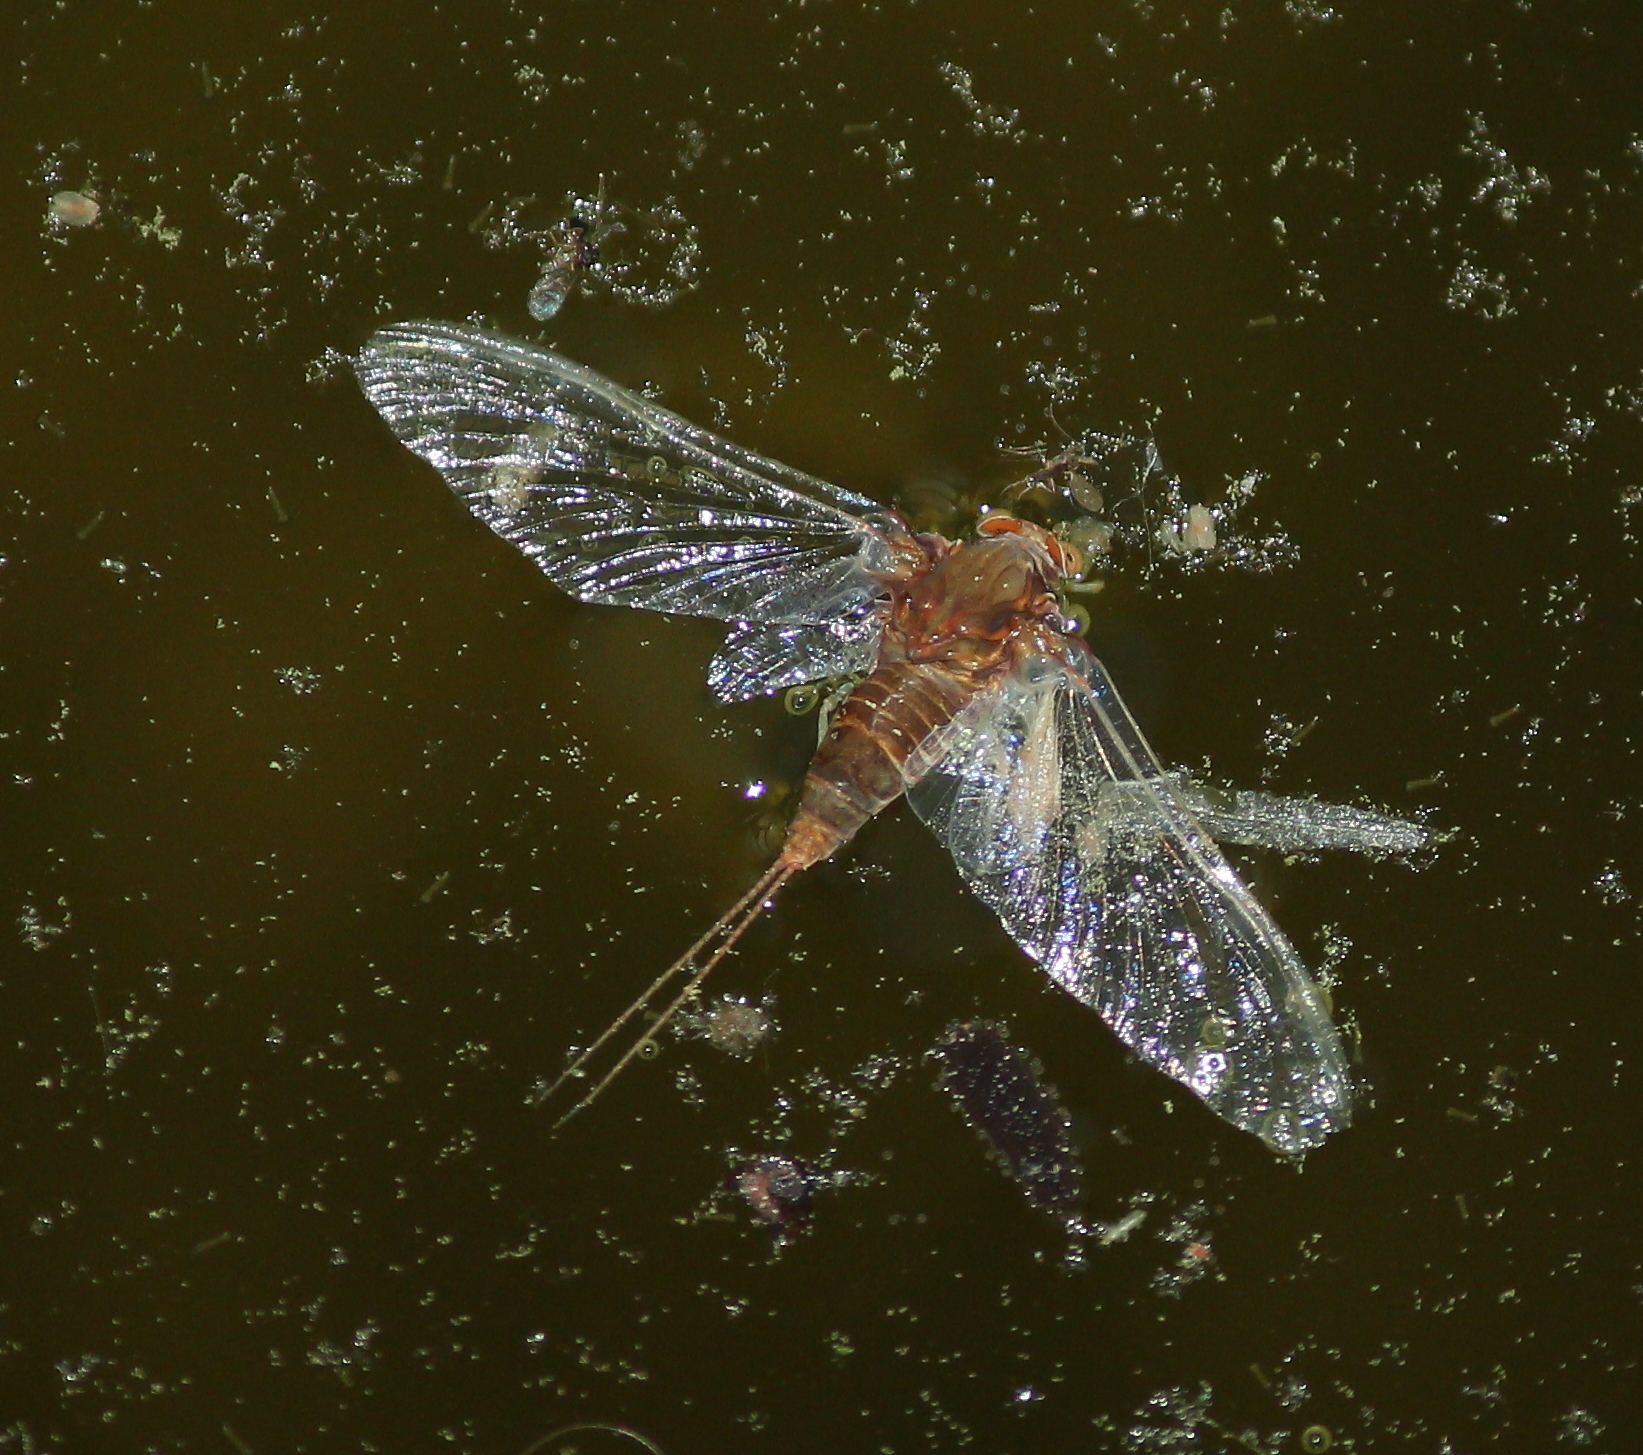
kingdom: Animalia
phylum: Arthropoda
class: Insecta
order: Ephemeroptera
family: Baetiscidae
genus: Baetisca
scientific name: Baetisca lacustris
